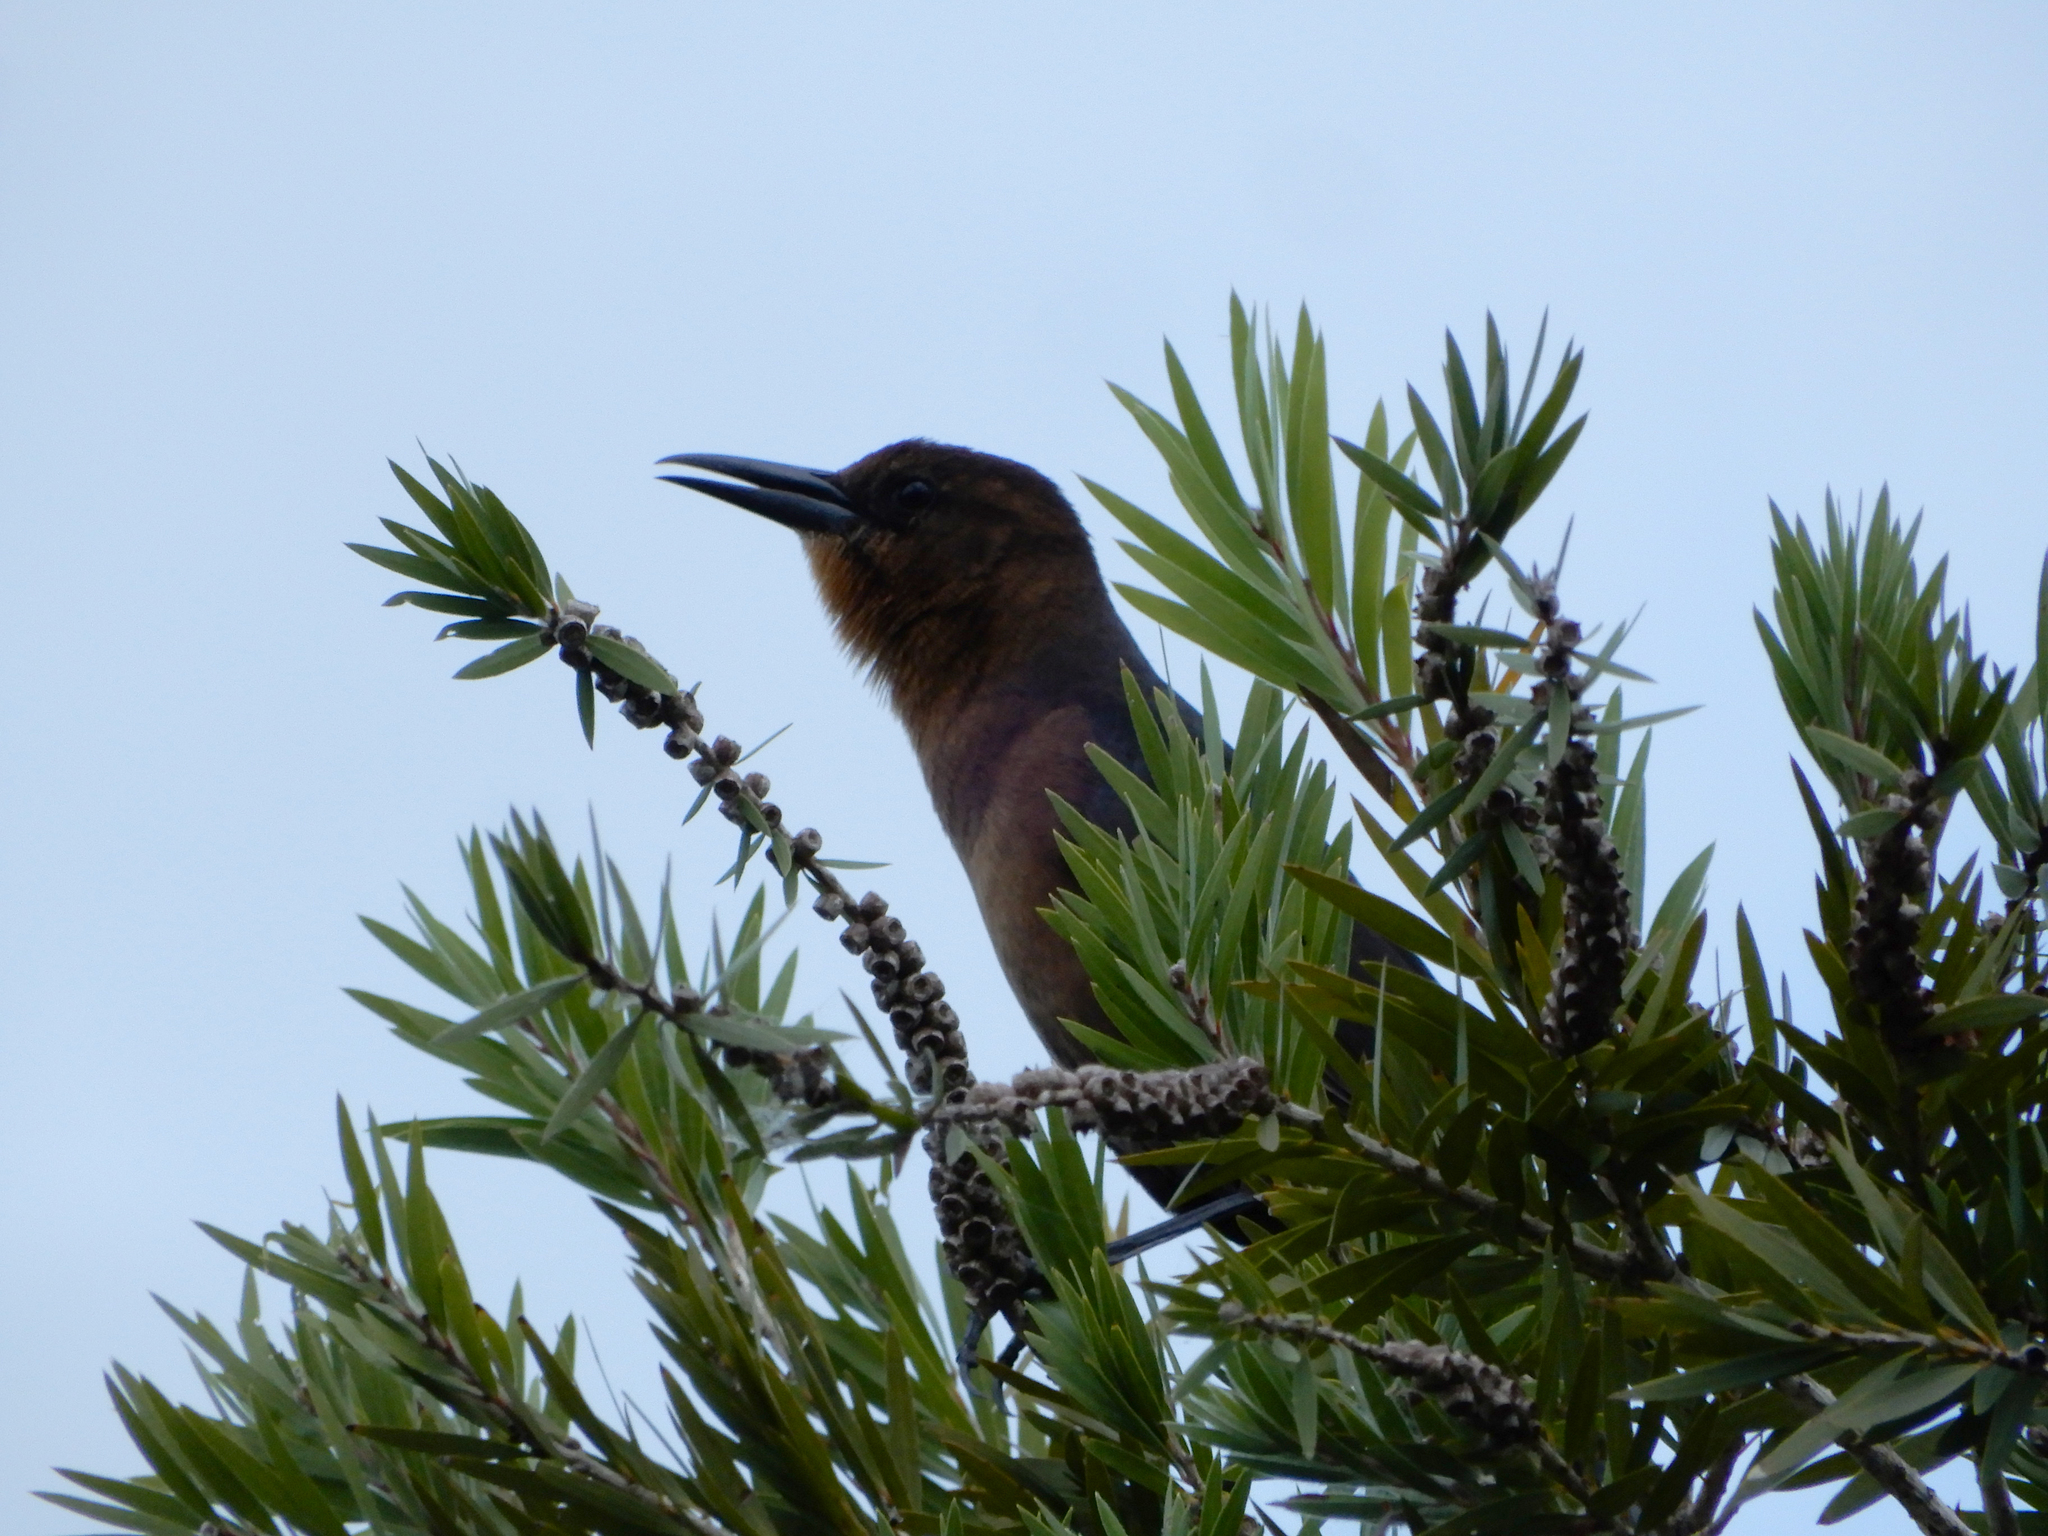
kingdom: Animalia
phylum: Chordata
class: Aves
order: Passeriformes
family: Icteridae
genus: Quiscalus
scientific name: Quiscalus major
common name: Boat-tailed grackle
